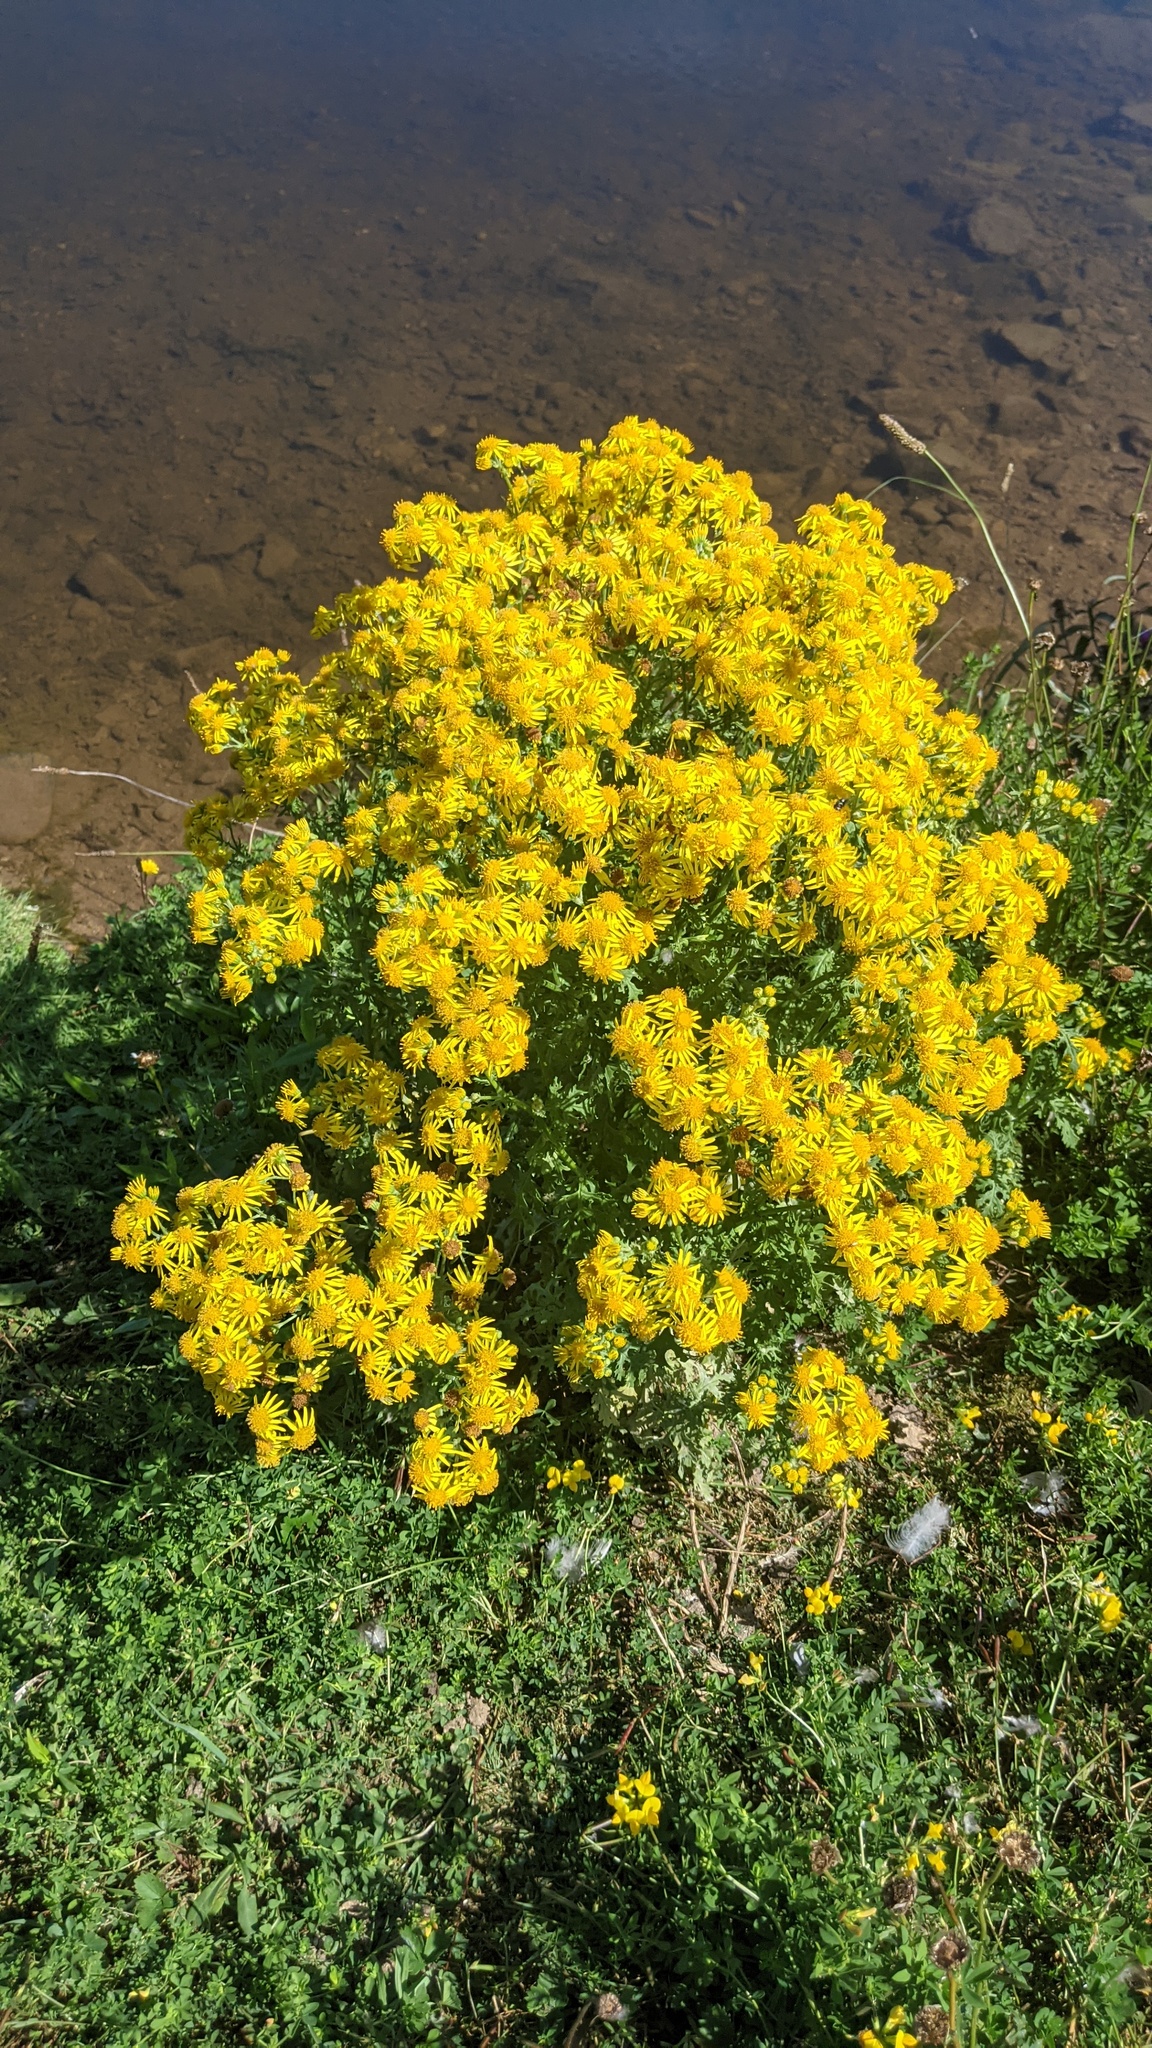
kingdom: Plantae
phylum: Tracheophyta
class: Magnoliopsida
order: Asterales
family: Asteraceae
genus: Jacobaea
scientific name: Jacobaea vulgaris
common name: Stinking willie
